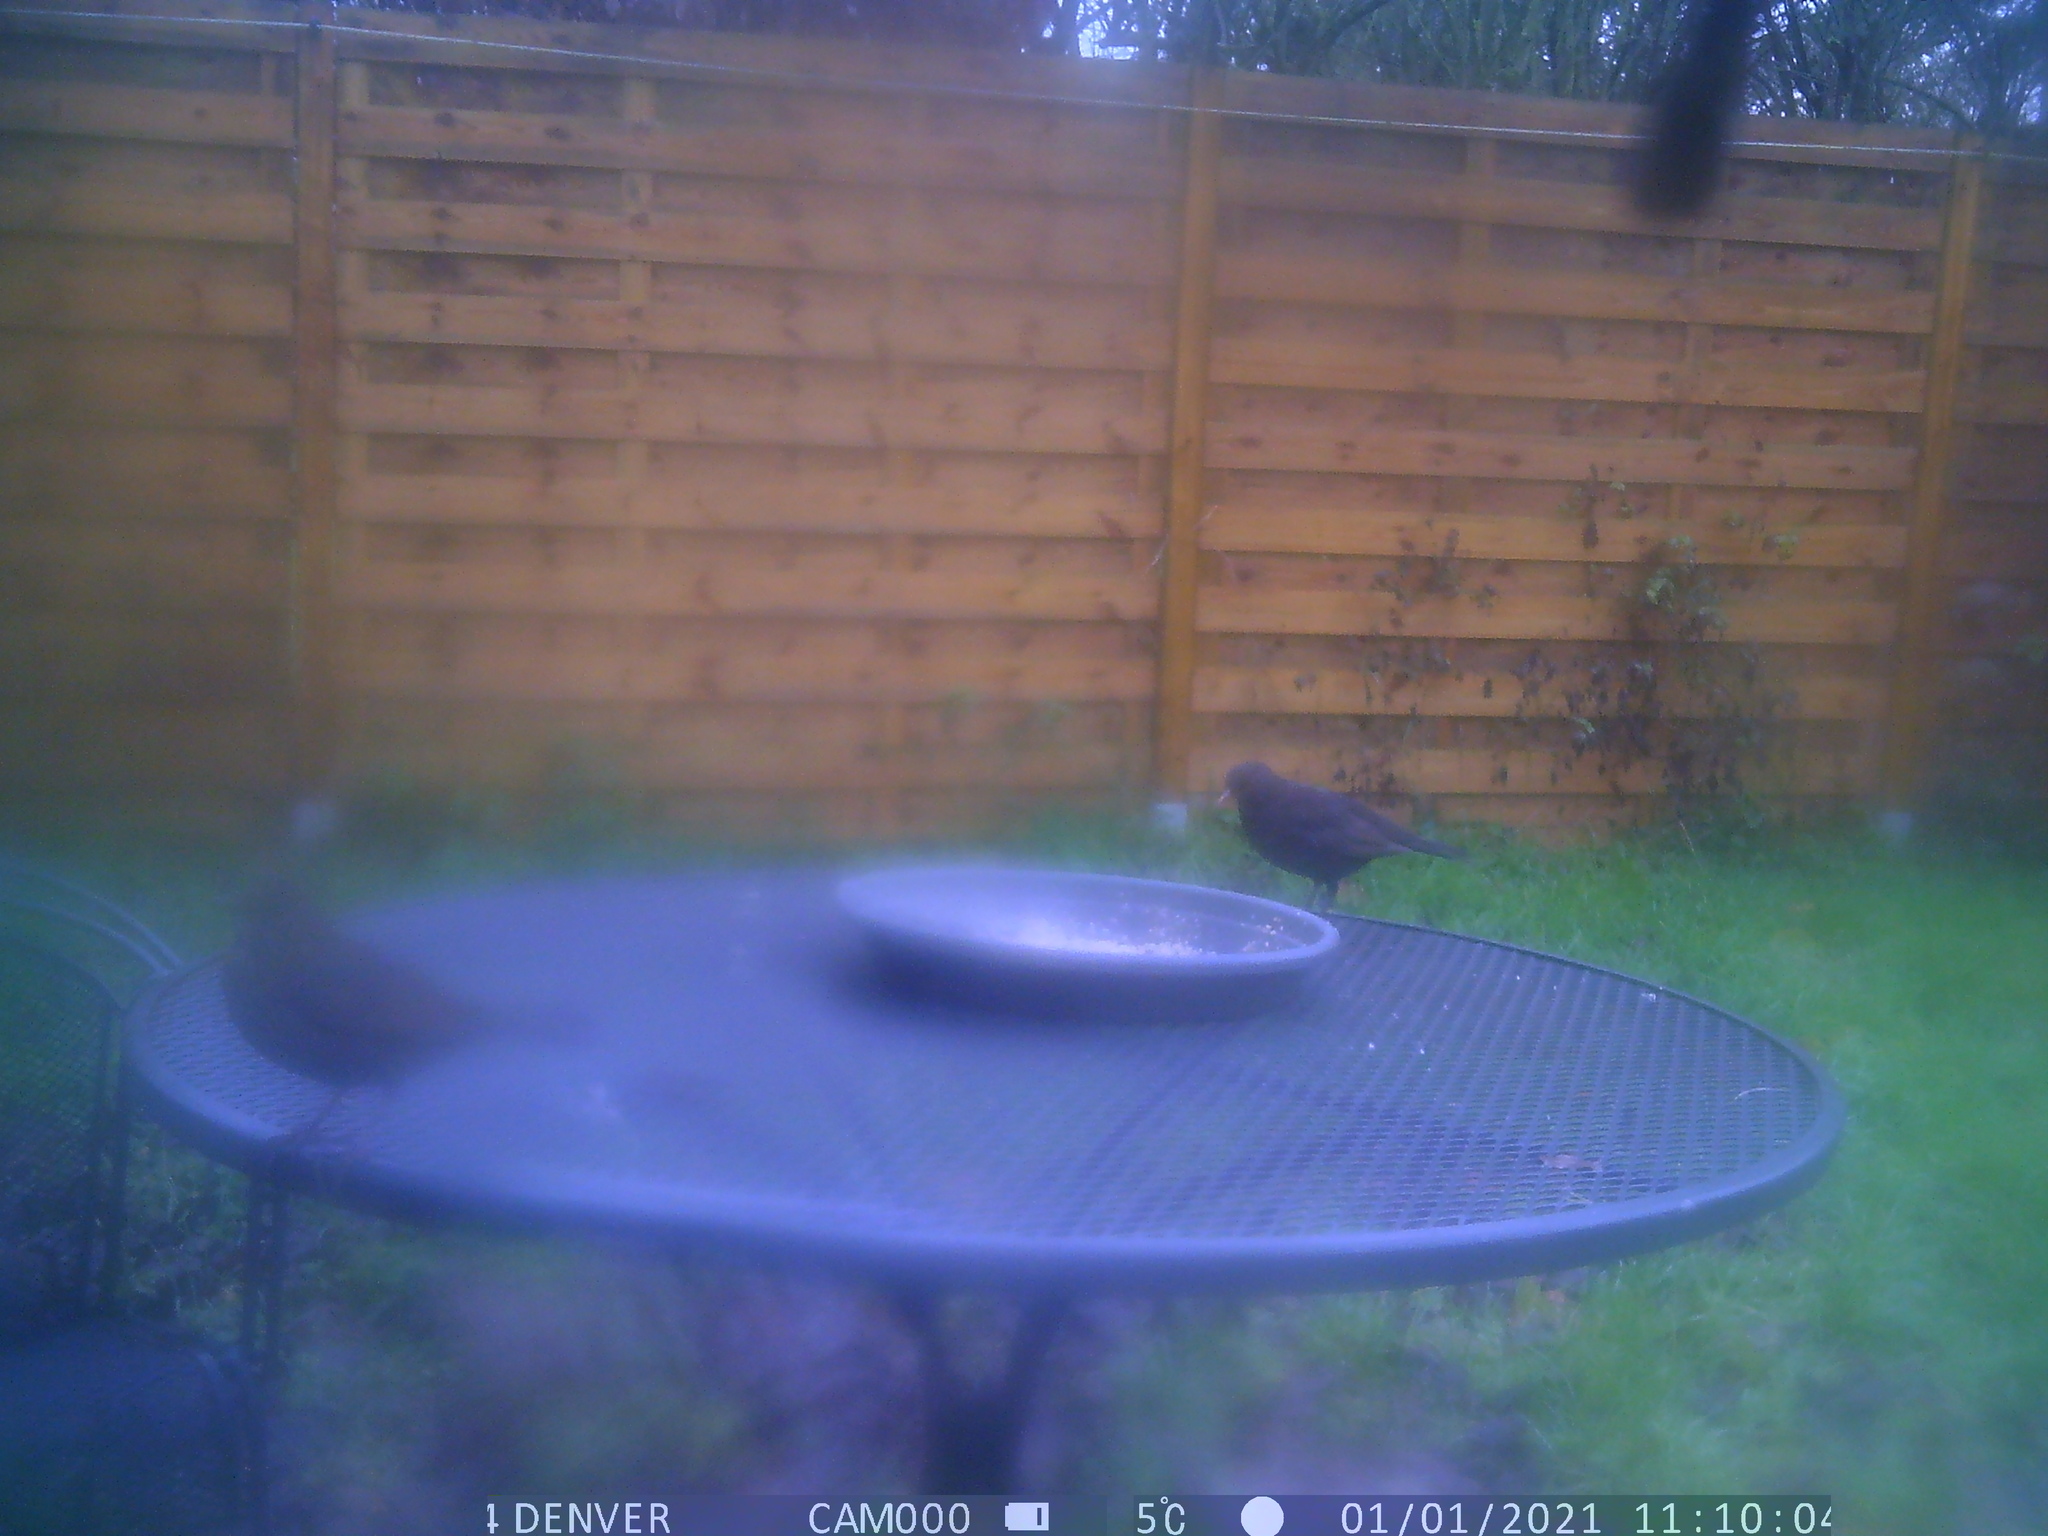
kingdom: Animalia
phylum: Chordata
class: Aves
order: Passeriformes
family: Turdidae
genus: Turdus
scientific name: Turdus merula
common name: Common blackbird
